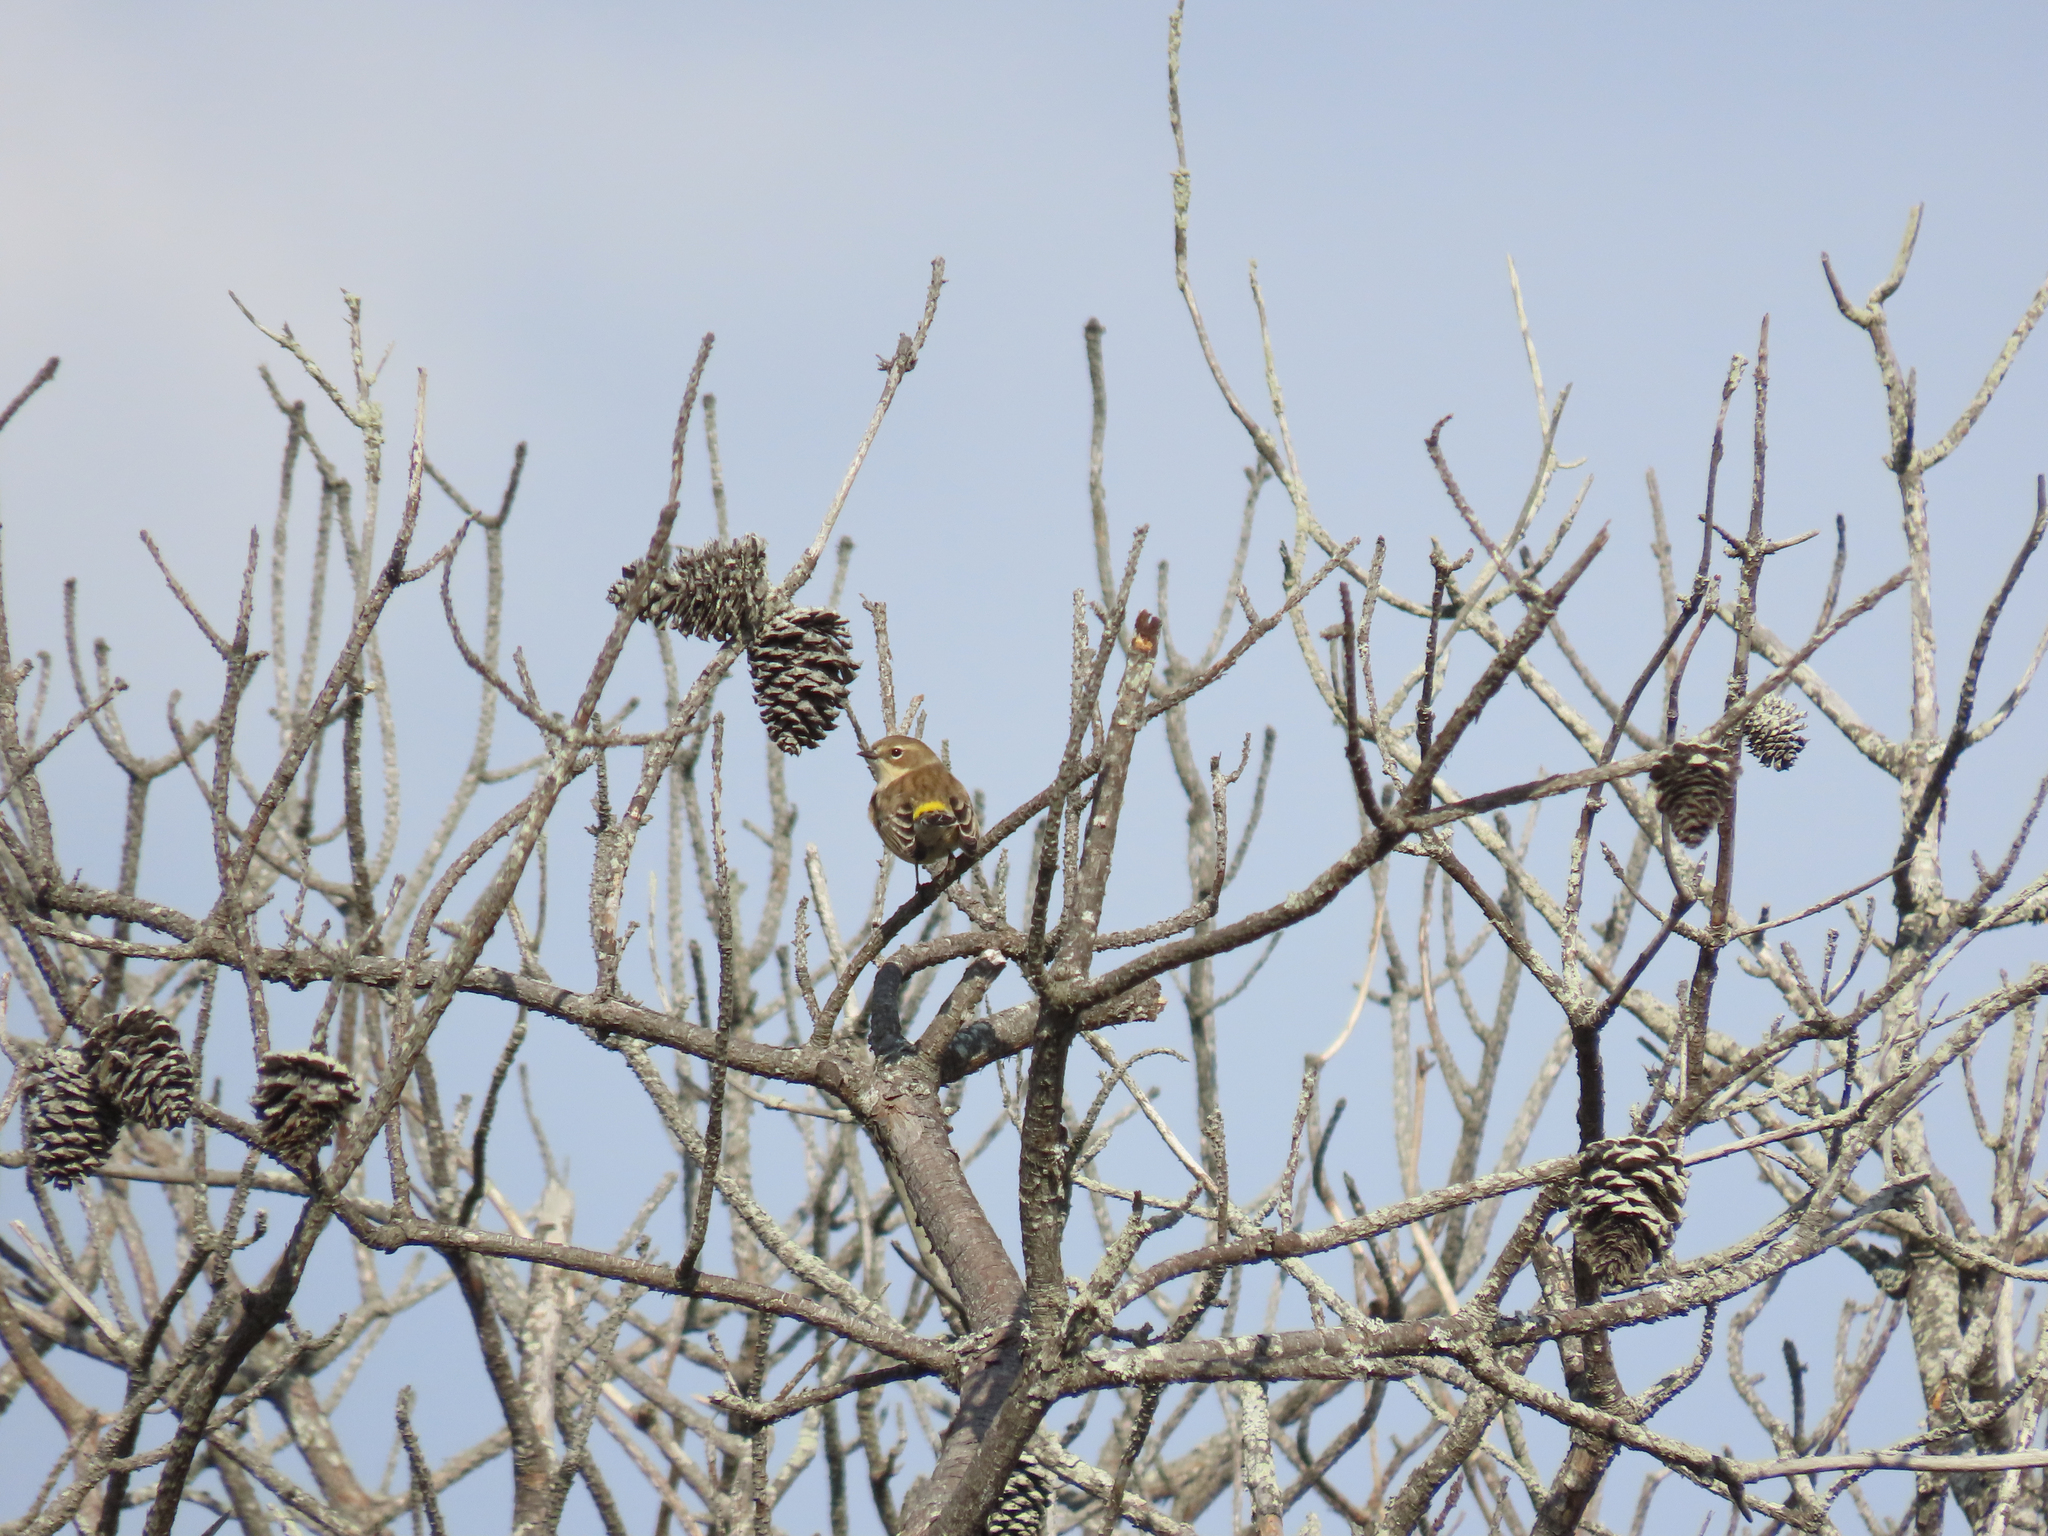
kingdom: Animalia
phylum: Chordata
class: Aves
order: Passeriformes
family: Parulidae
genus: Setophaga
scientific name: Setophaga coronata
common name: Myrtle warbler
